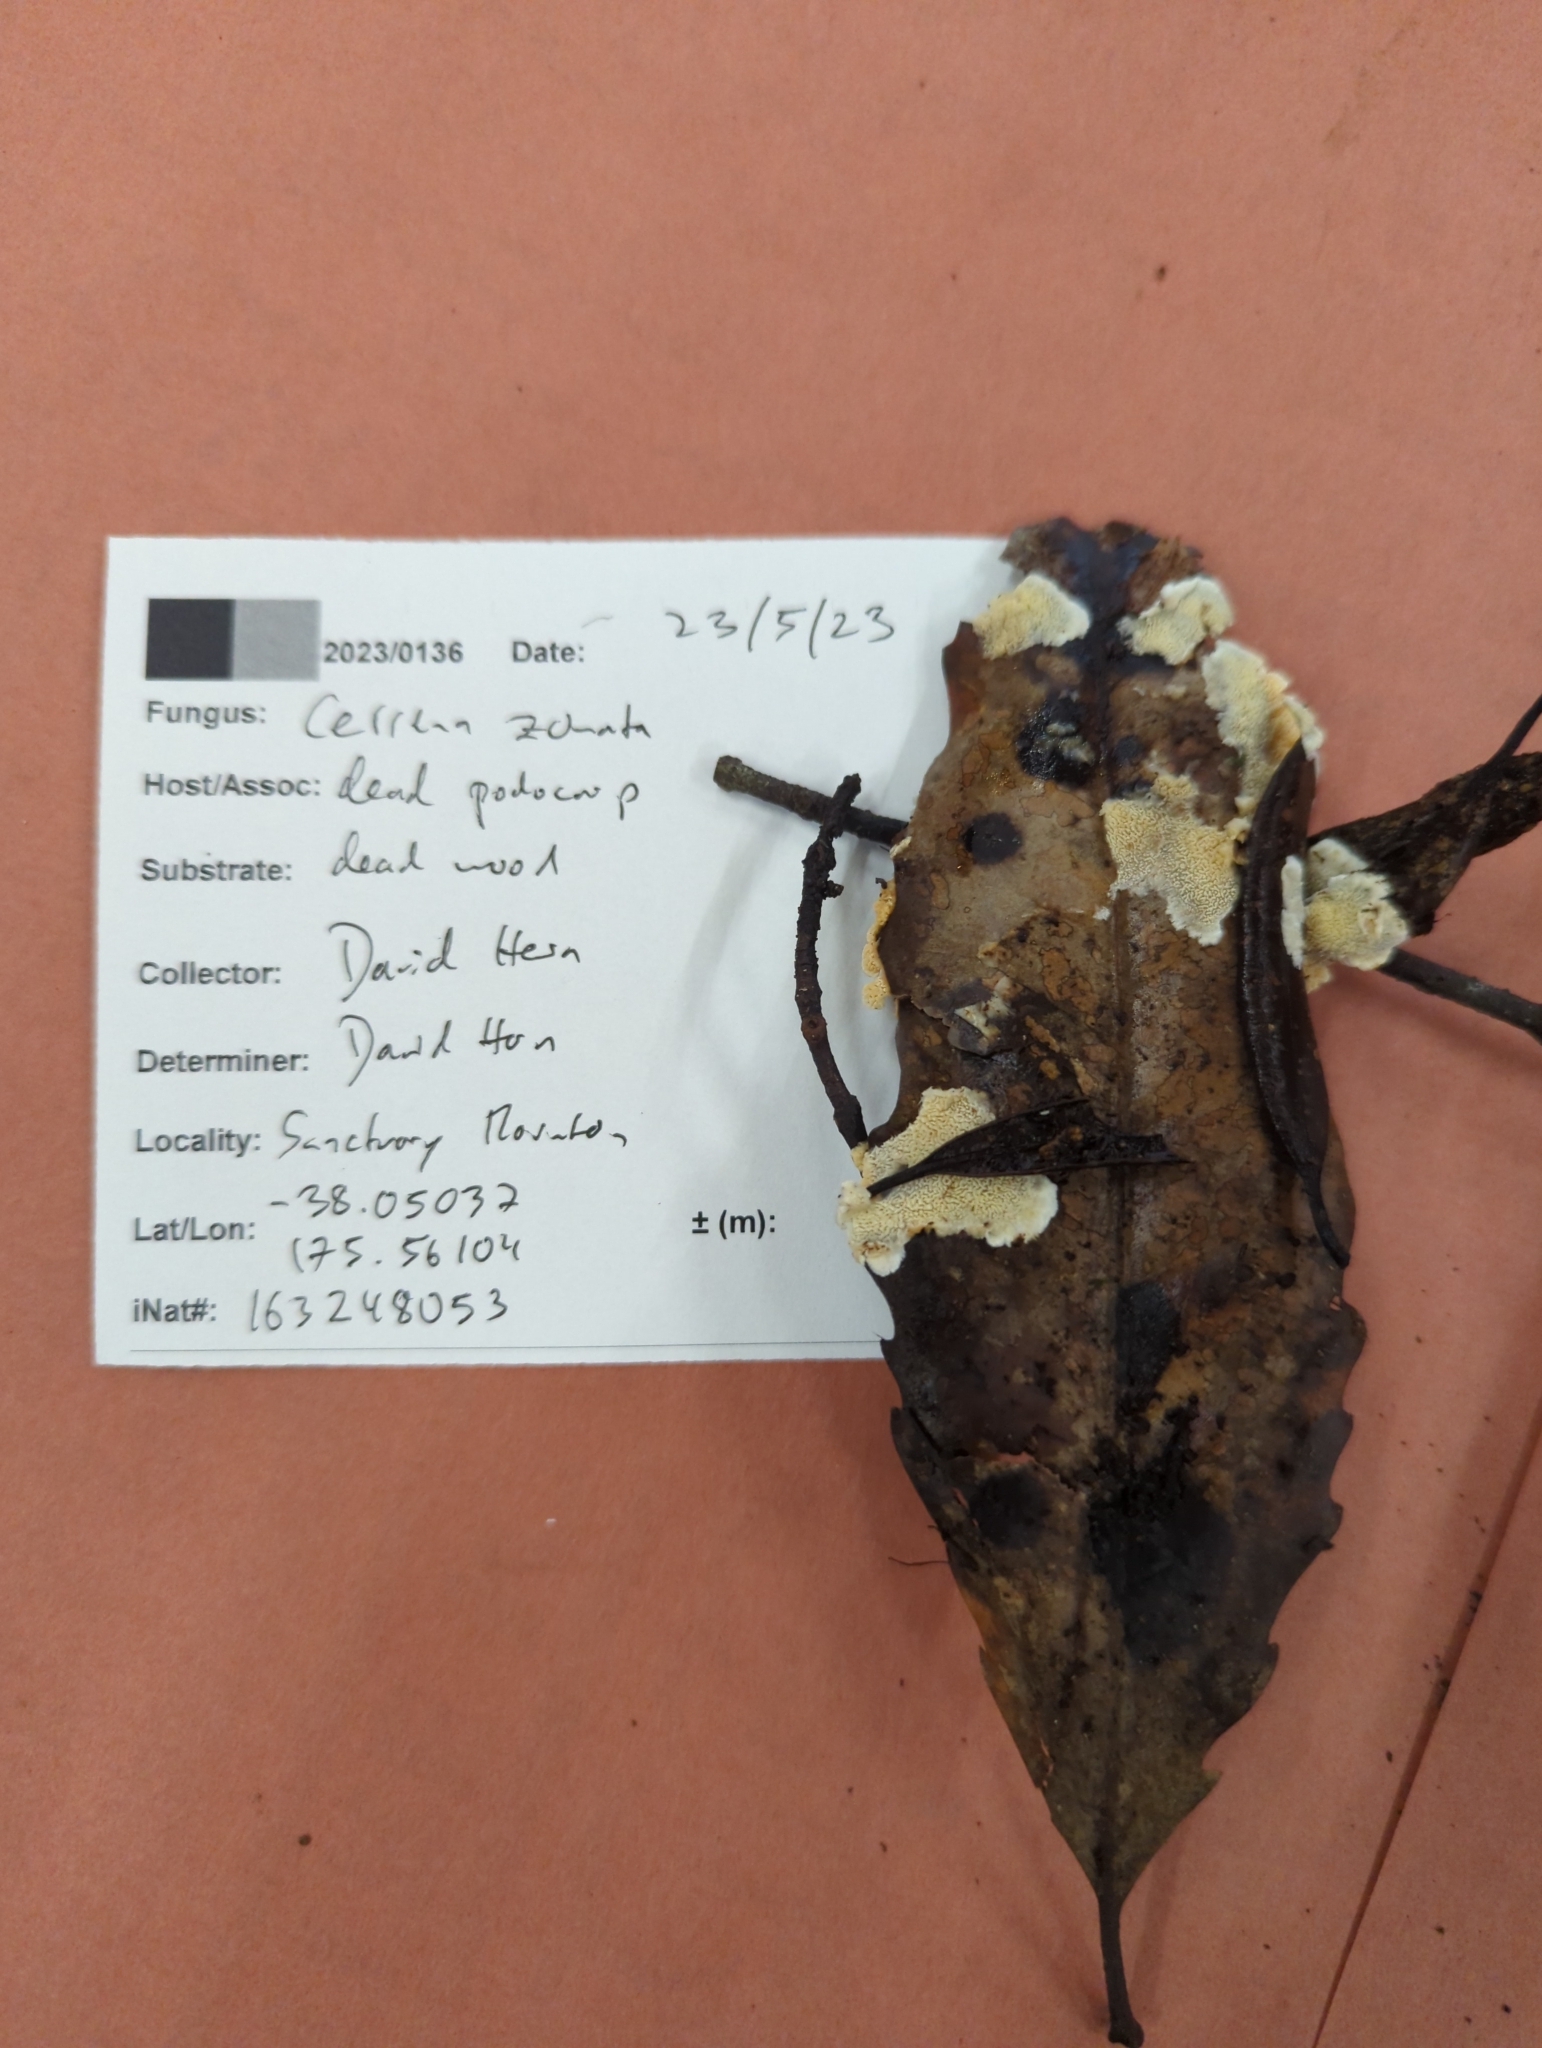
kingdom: Fungi
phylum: Basidiomycota
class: Agaricomycetes
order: Polyporales
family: Cerrenaceae
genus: Cerrena
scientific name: Cerrena zonata
